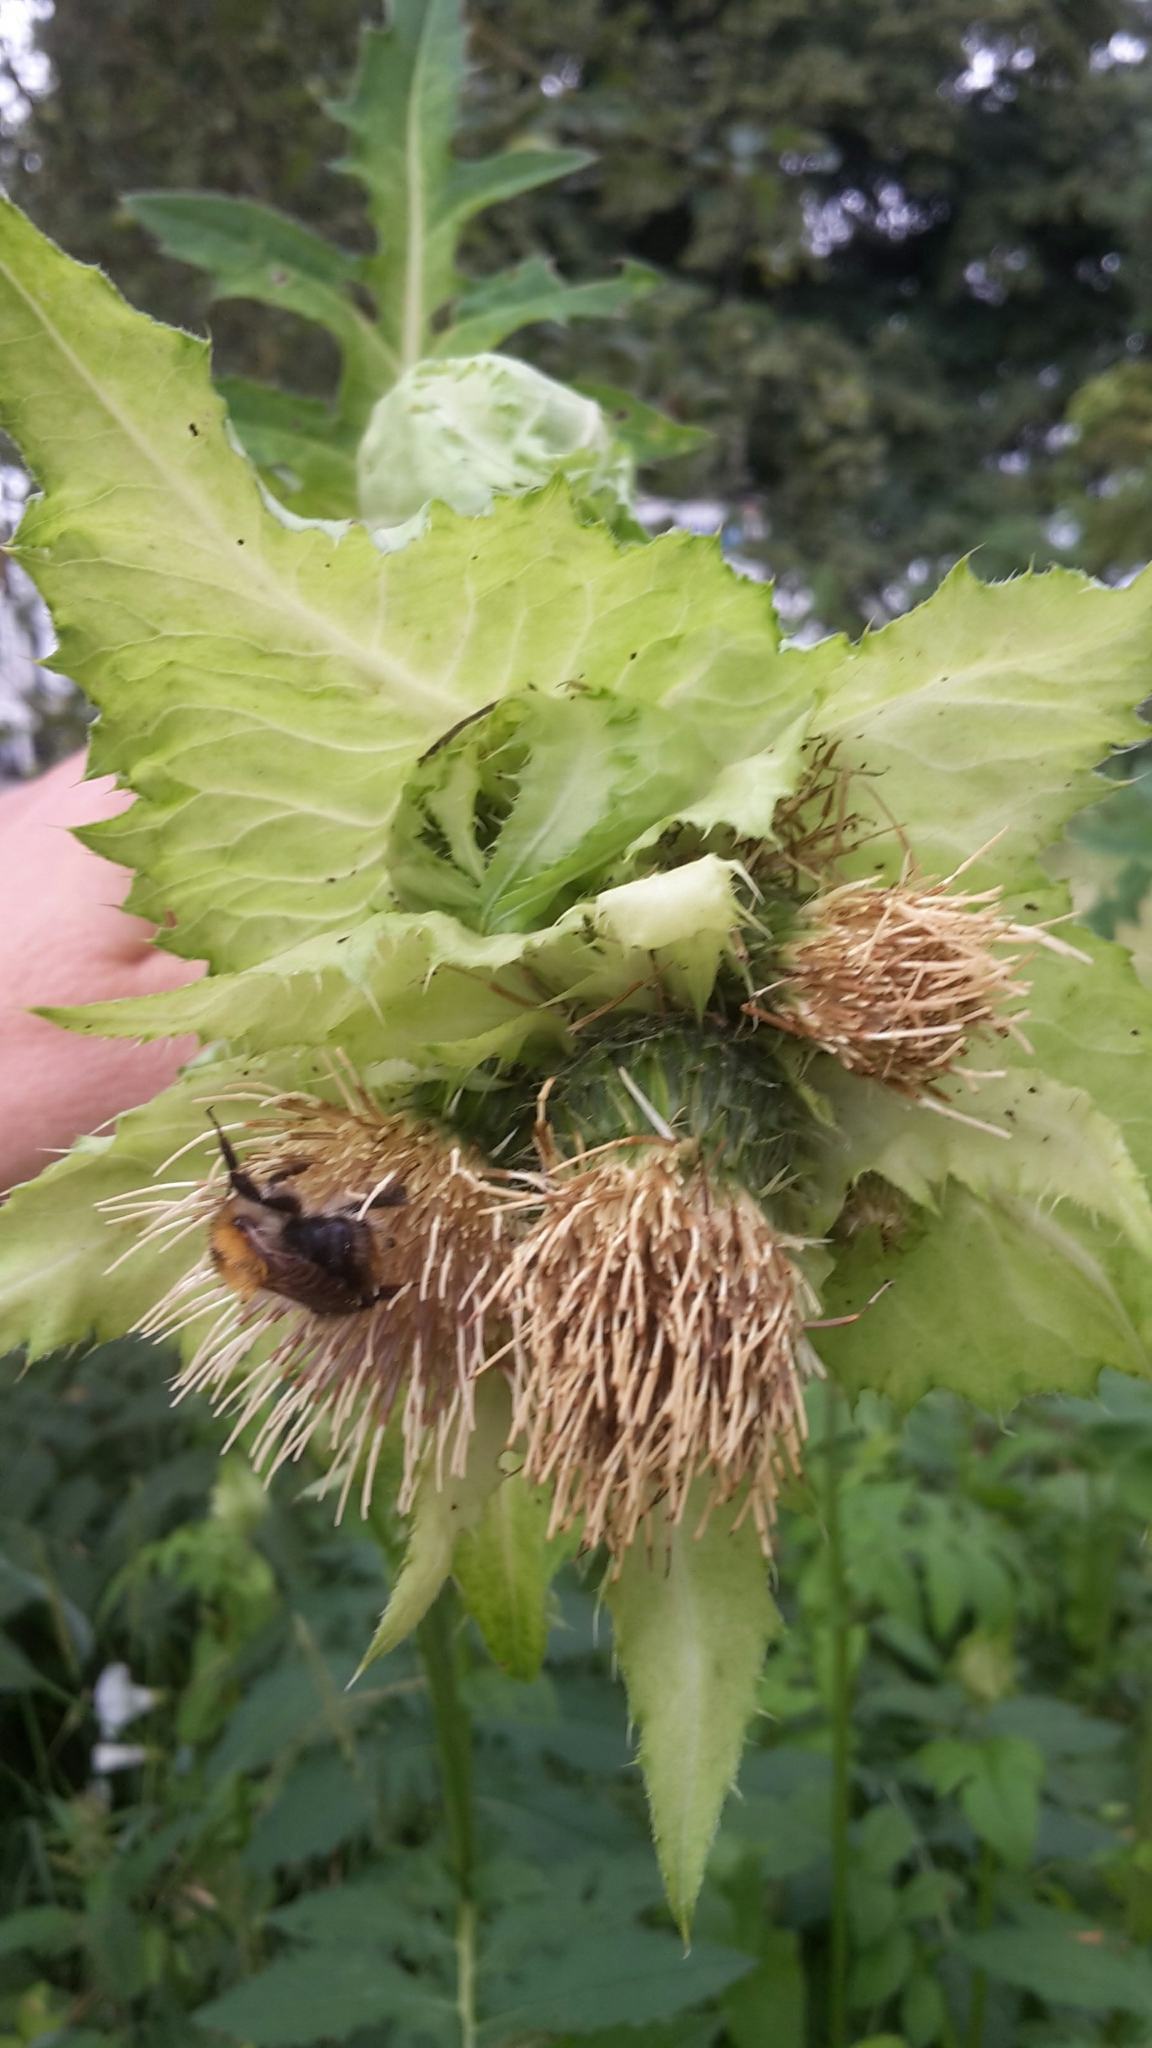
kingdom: Plantae
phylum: Tracheophyta
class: Magnoliopsida
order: Asterales
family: Asteraceae
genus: Cirsium
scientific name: Cirsium oleraceum
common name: Cabbage thistle
